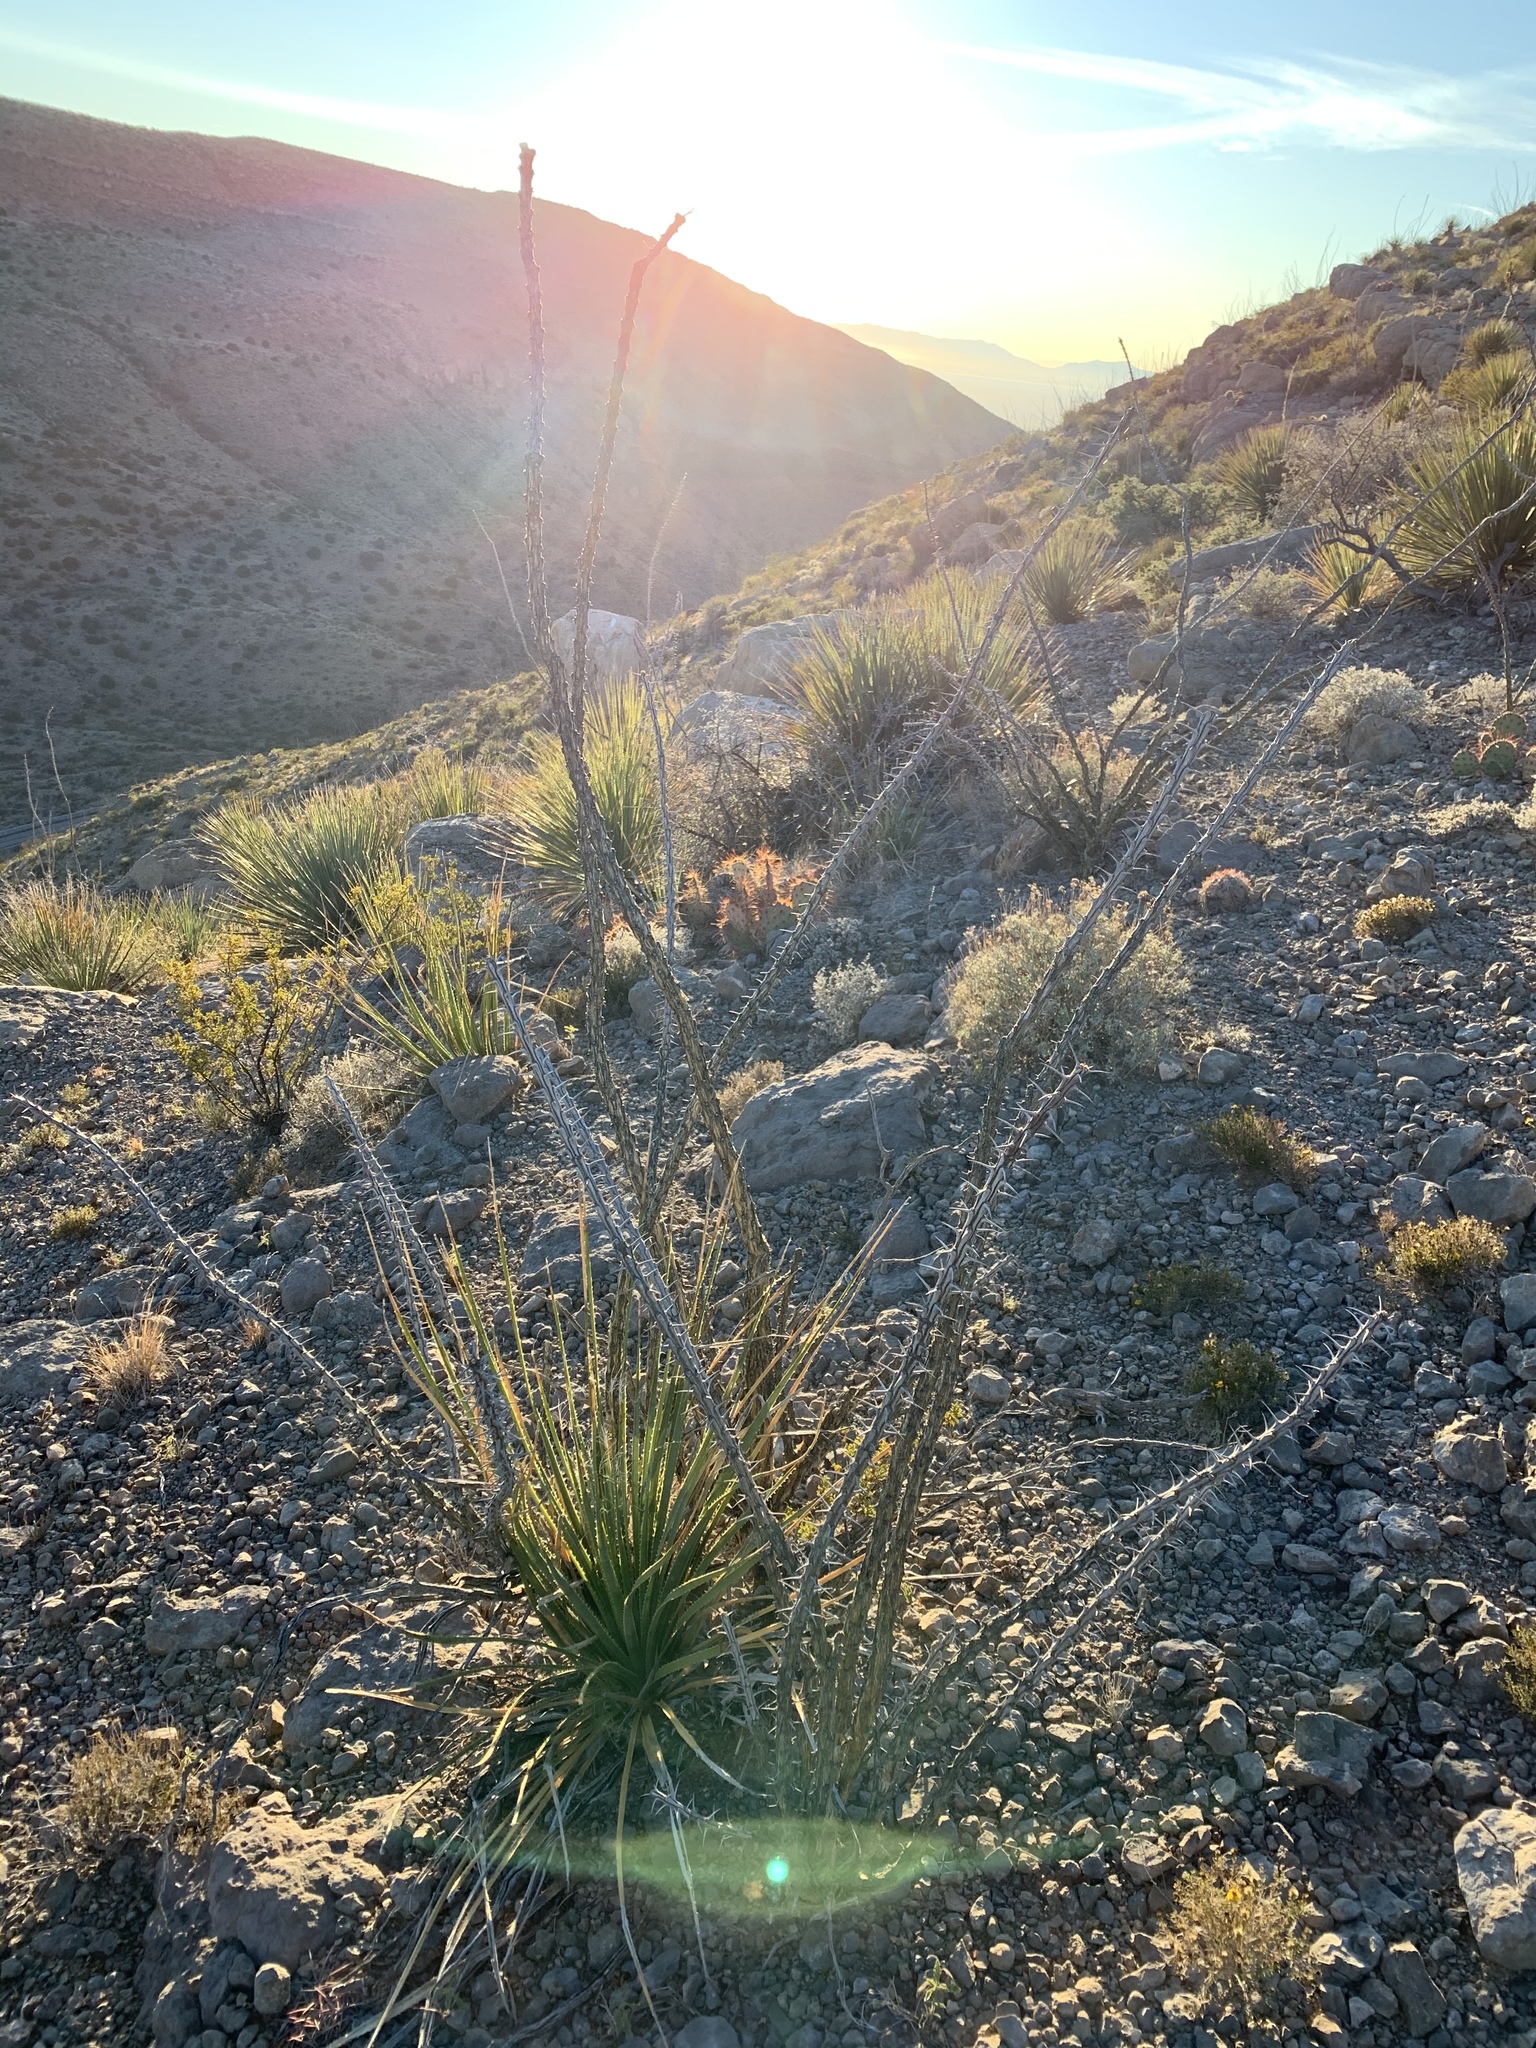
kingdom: Plantae
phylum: Tracheophyta
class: Magnoliopsida
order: Ericales
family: Fouquieriaceae
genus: Fouquieria
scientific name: Fouquieria splendens
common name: Vine-cactus
